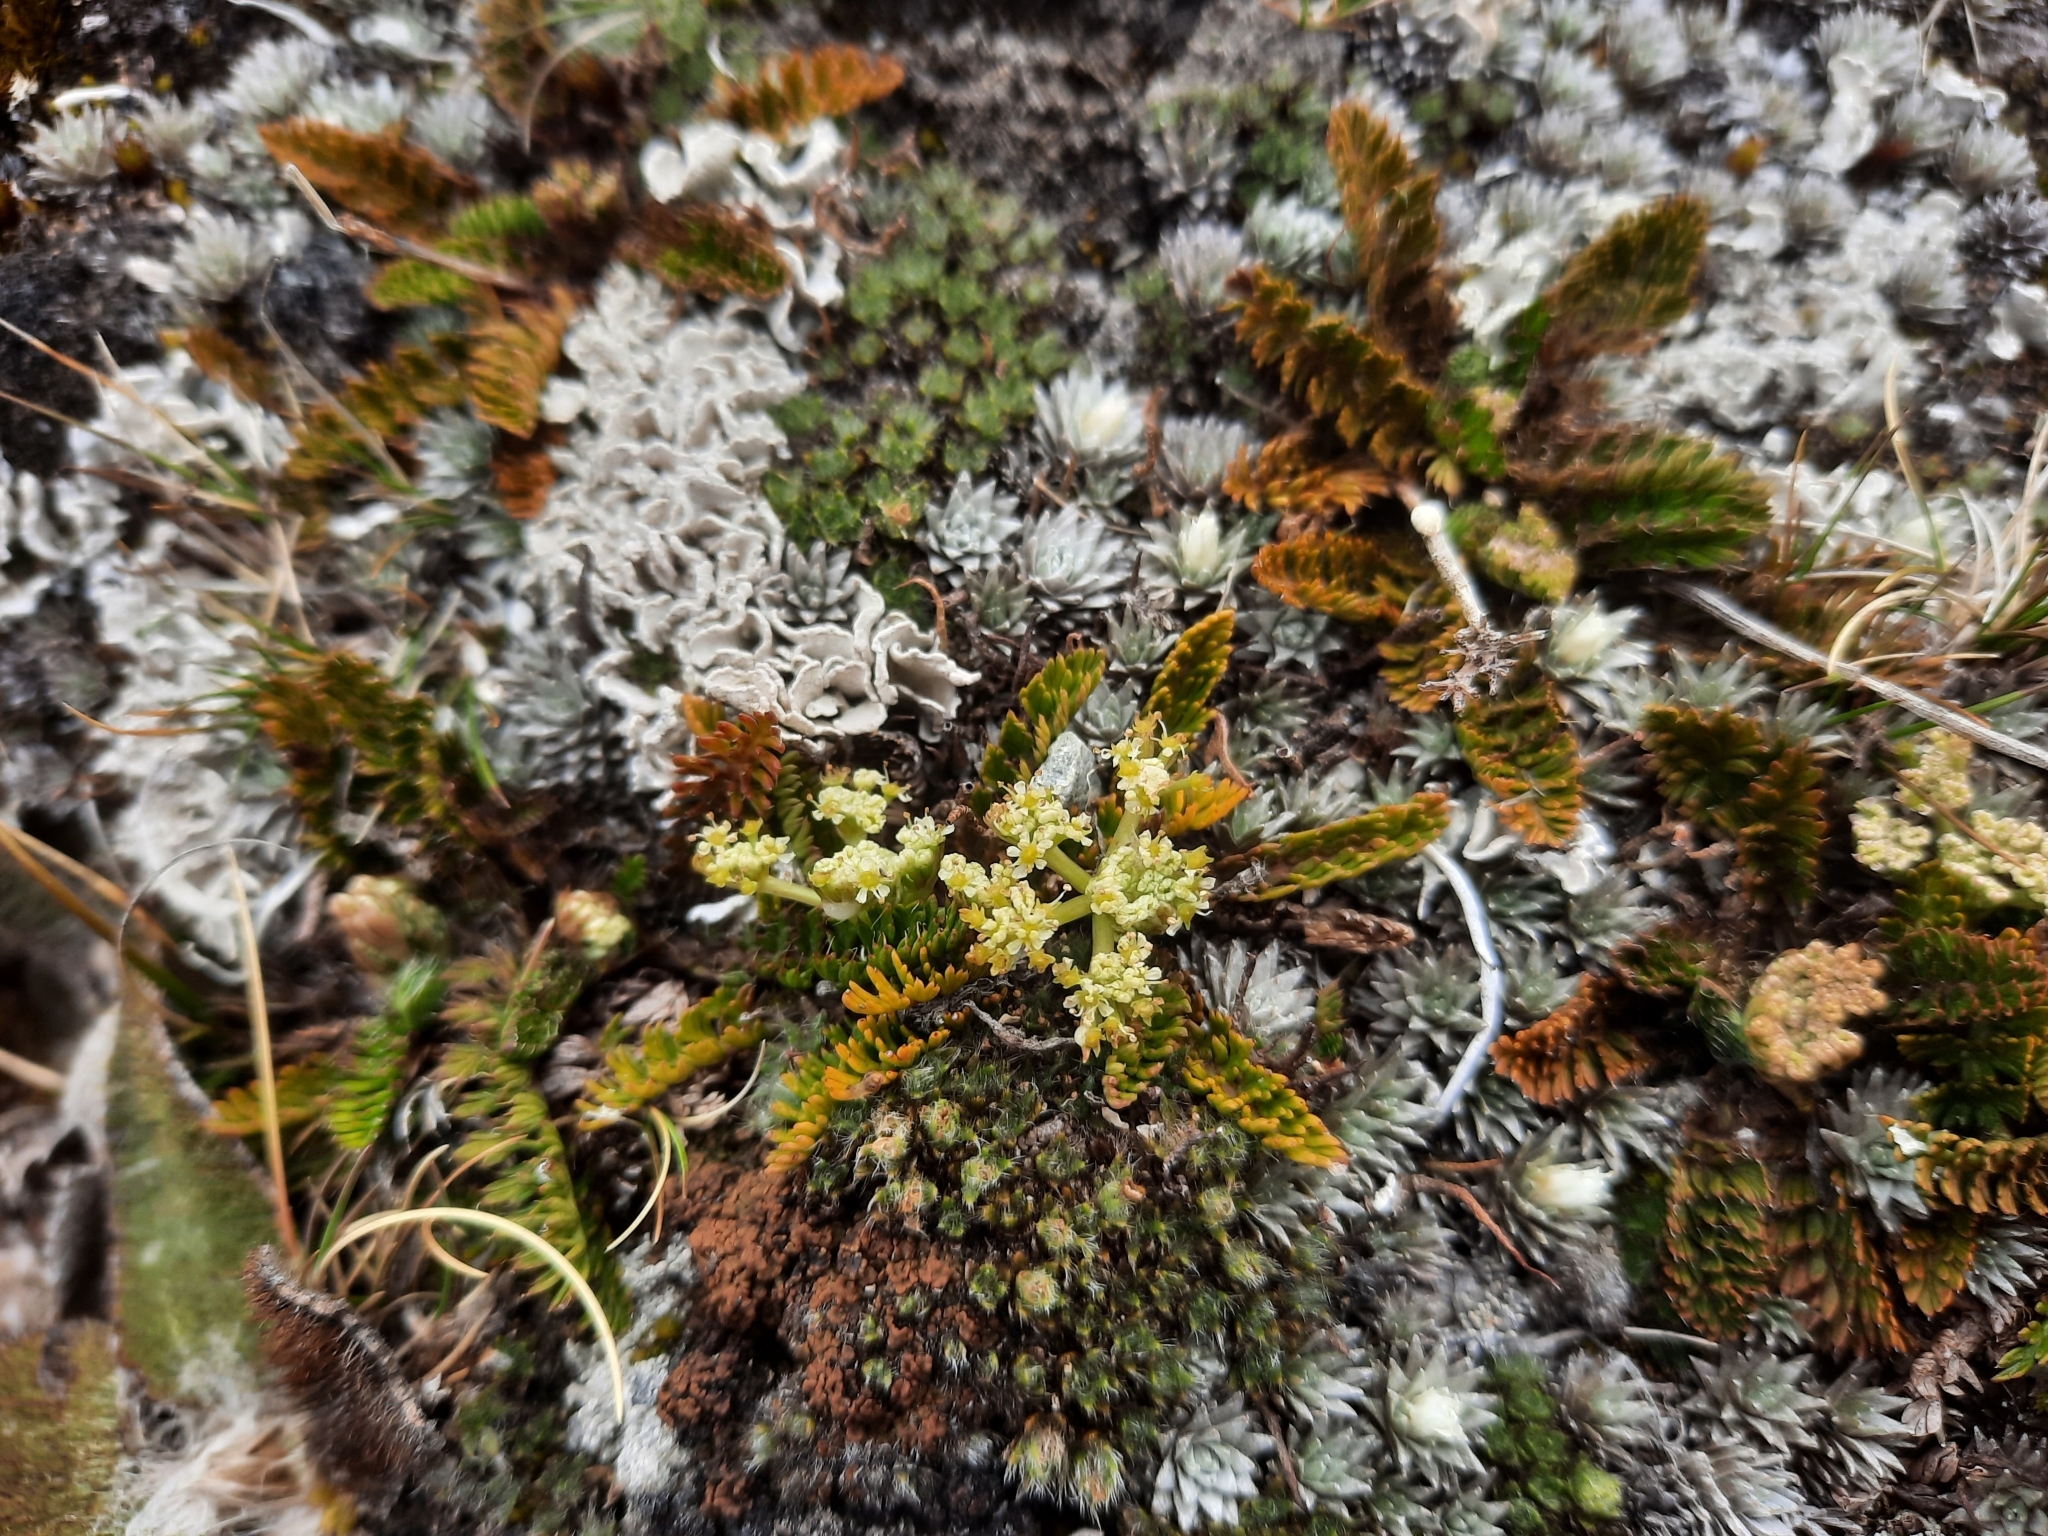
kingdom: Plantae
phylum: Tracheophyta
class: Magnoliopsida
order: Apiales
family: Apiaceae
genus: Anisotome
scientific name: Anisotome flexuosa
